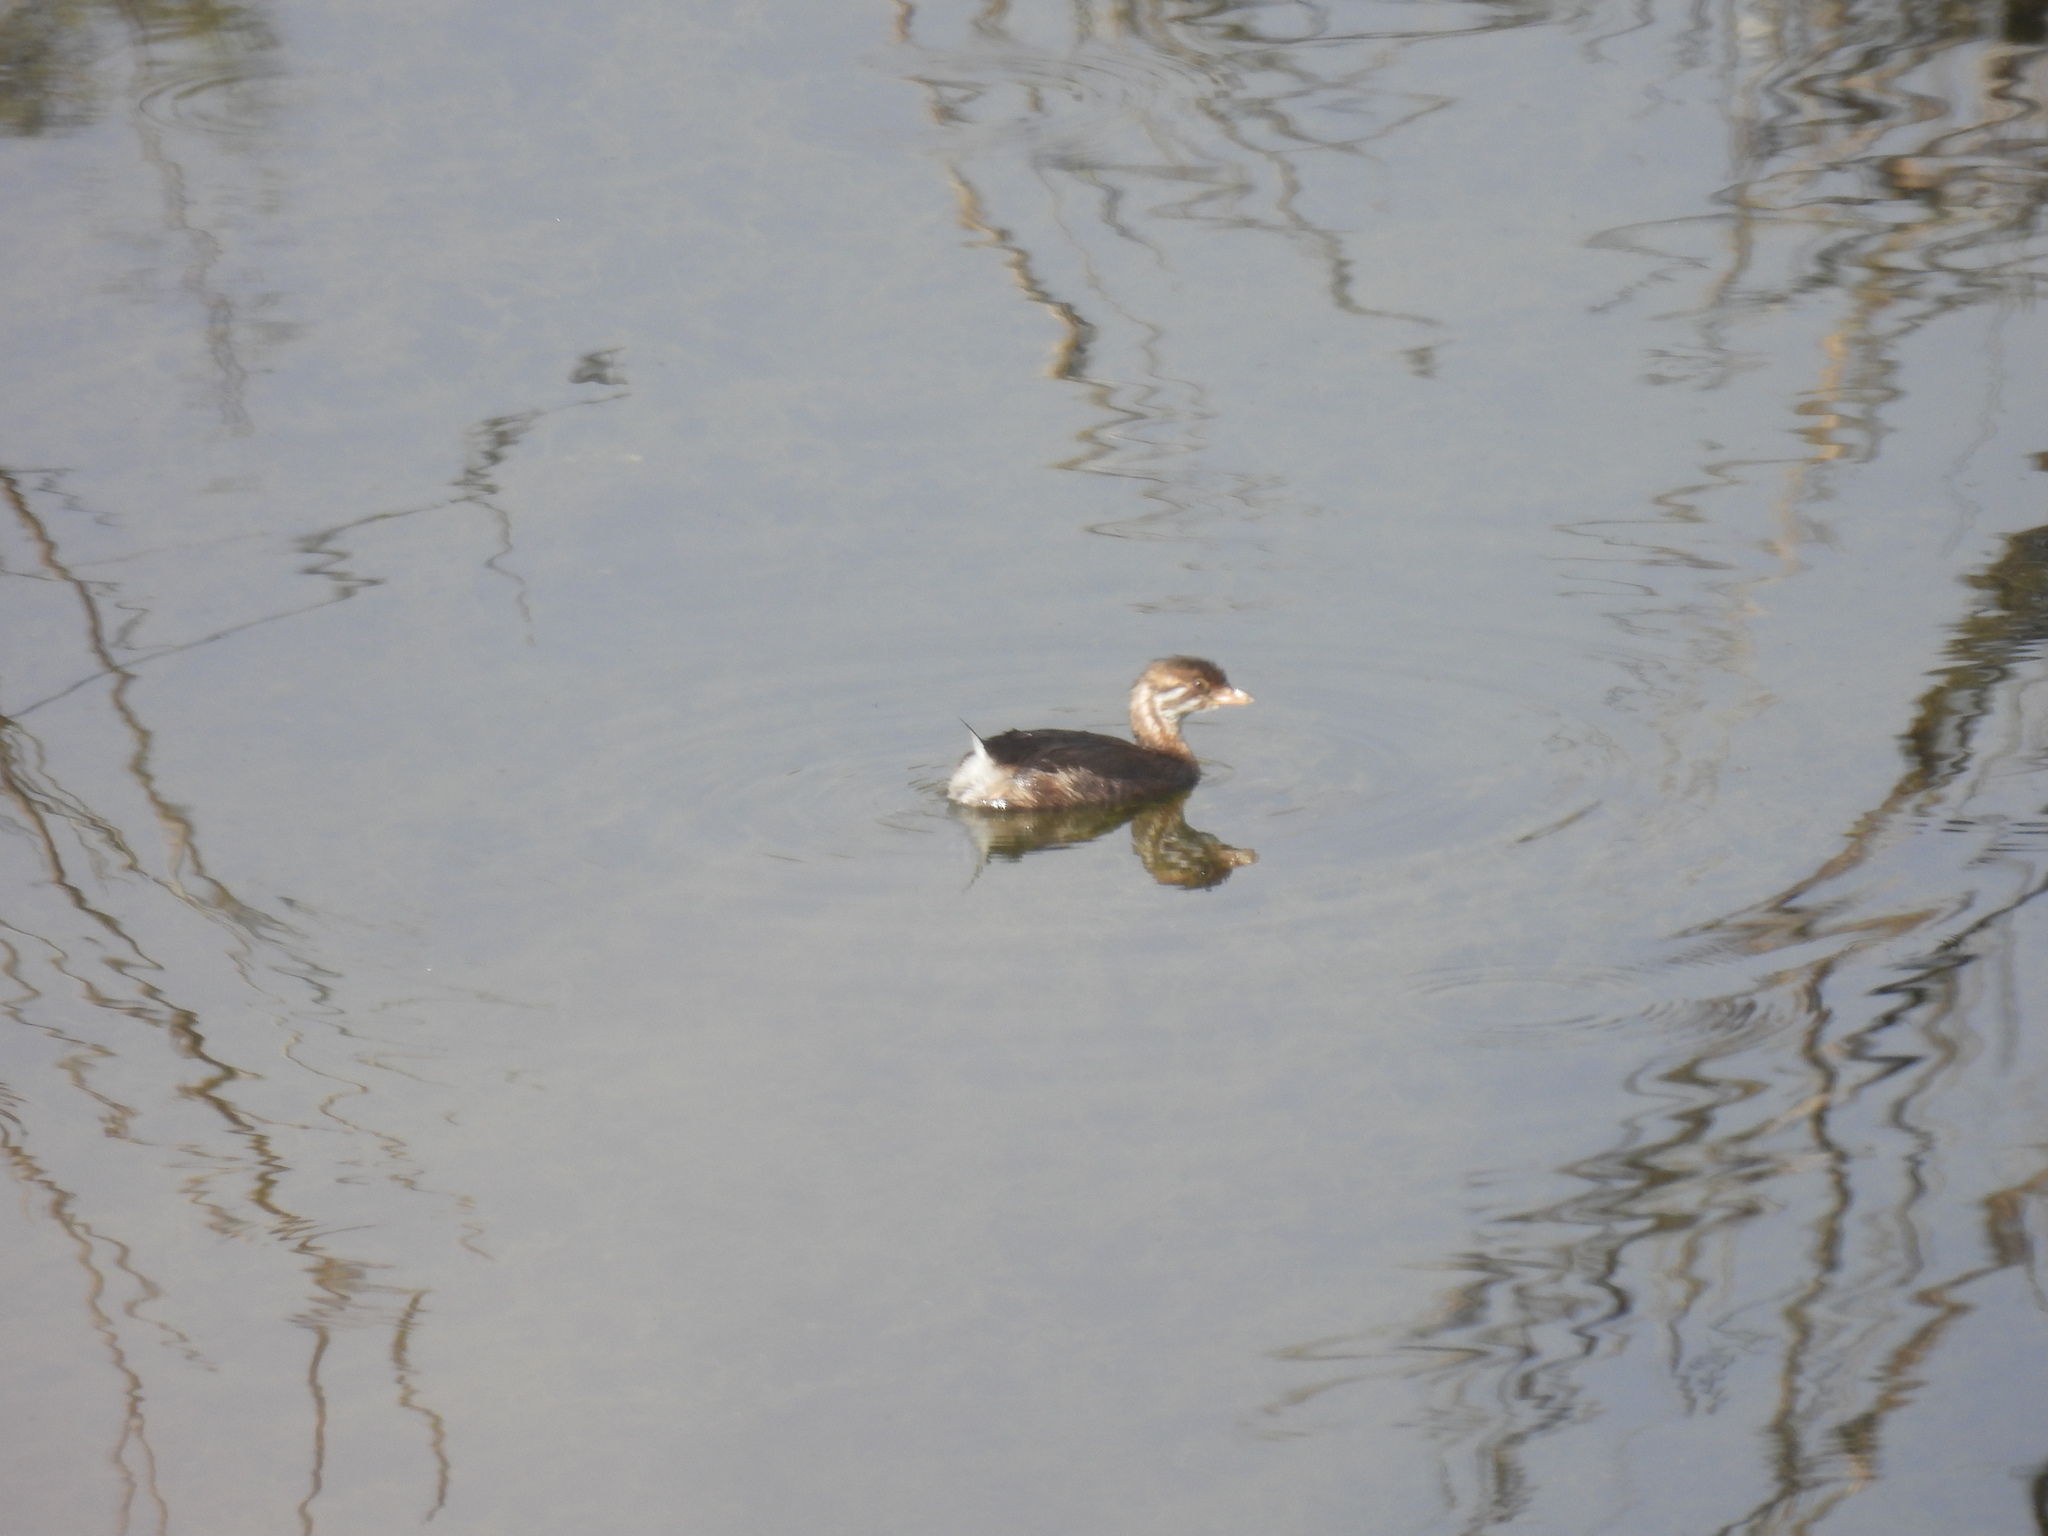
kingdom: Animalia
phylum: Chordata
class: Aves
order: Podicipediformes
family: Podicipedidae
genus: Podilymbus
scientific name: Podilymbus podiceps
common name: Pied-billed grebe
